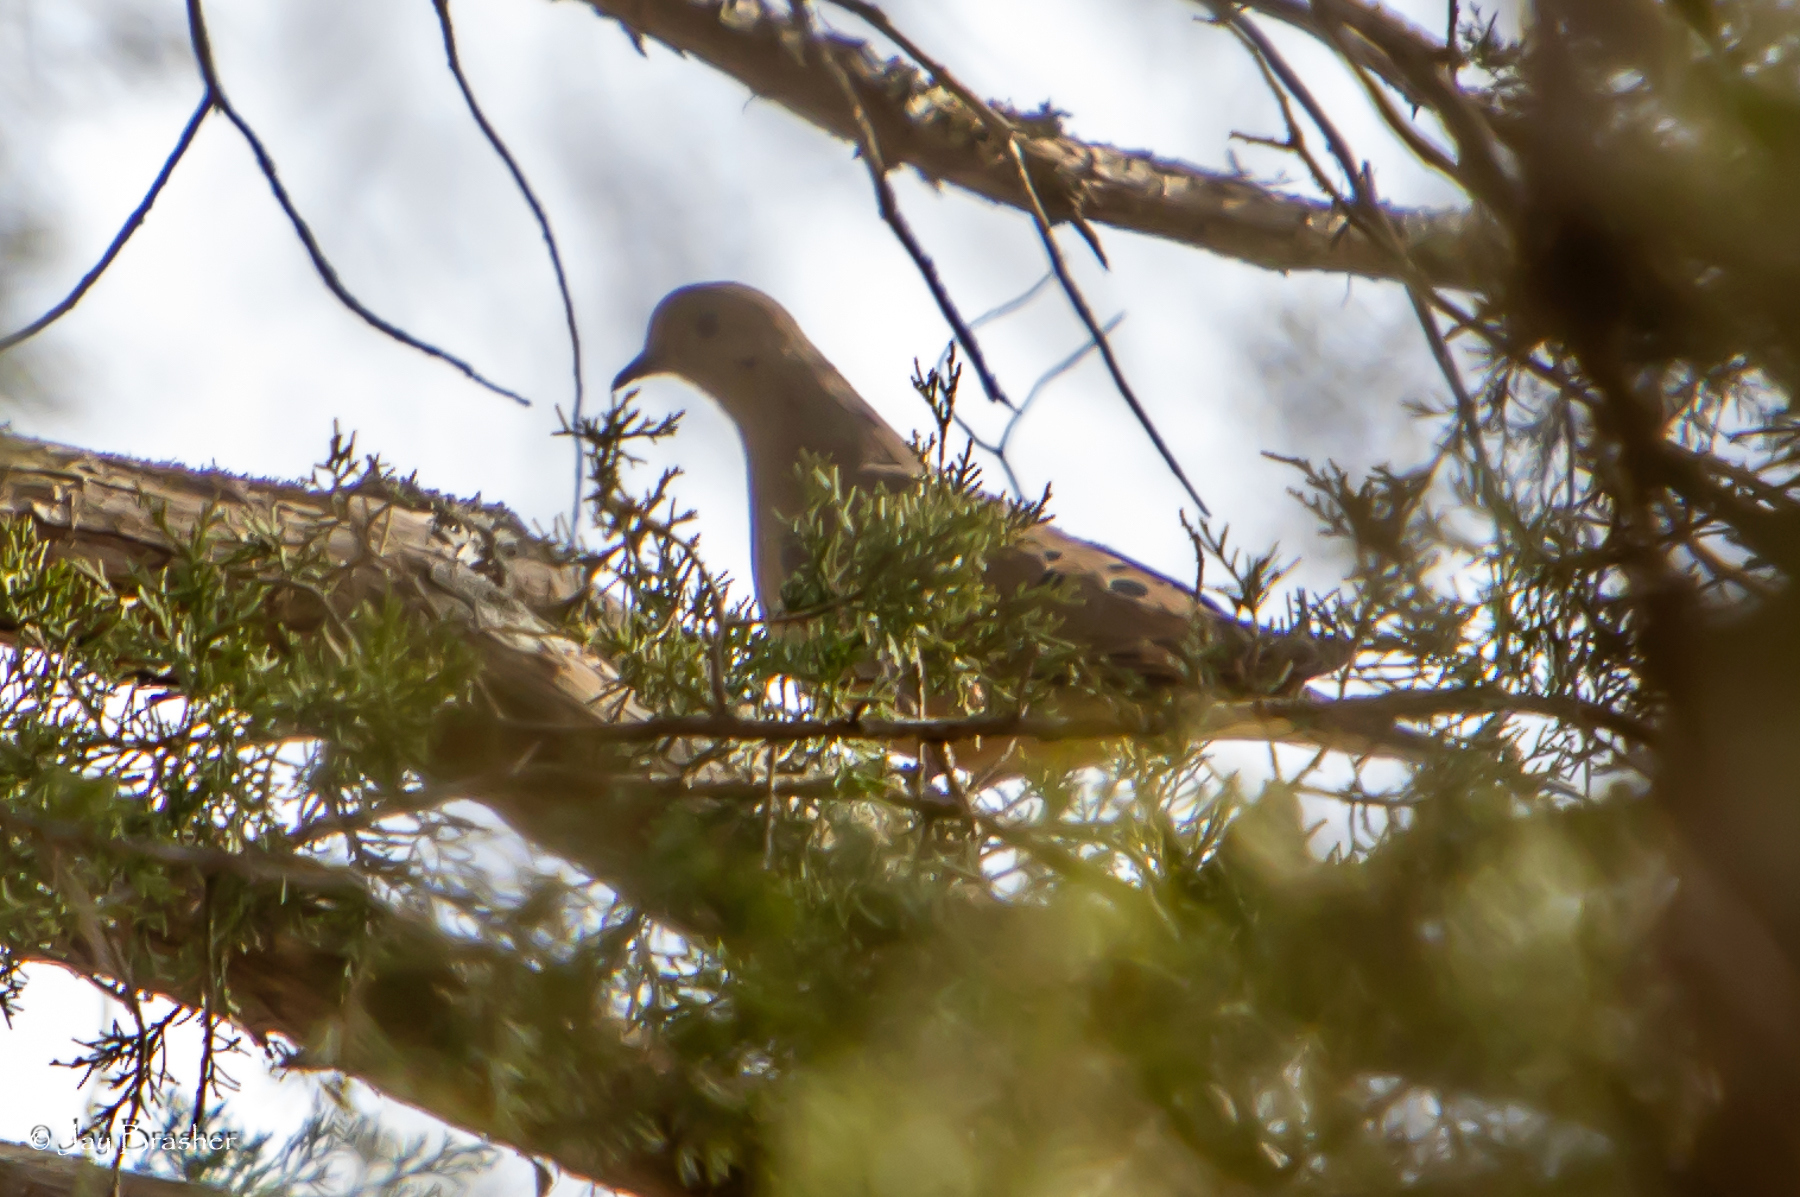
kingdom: Animalia
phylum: Chordata
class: Aves
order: Columbiformes
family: Columbidae
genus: Zenaida
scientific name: Zenaida macroura
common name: Mourning dove
